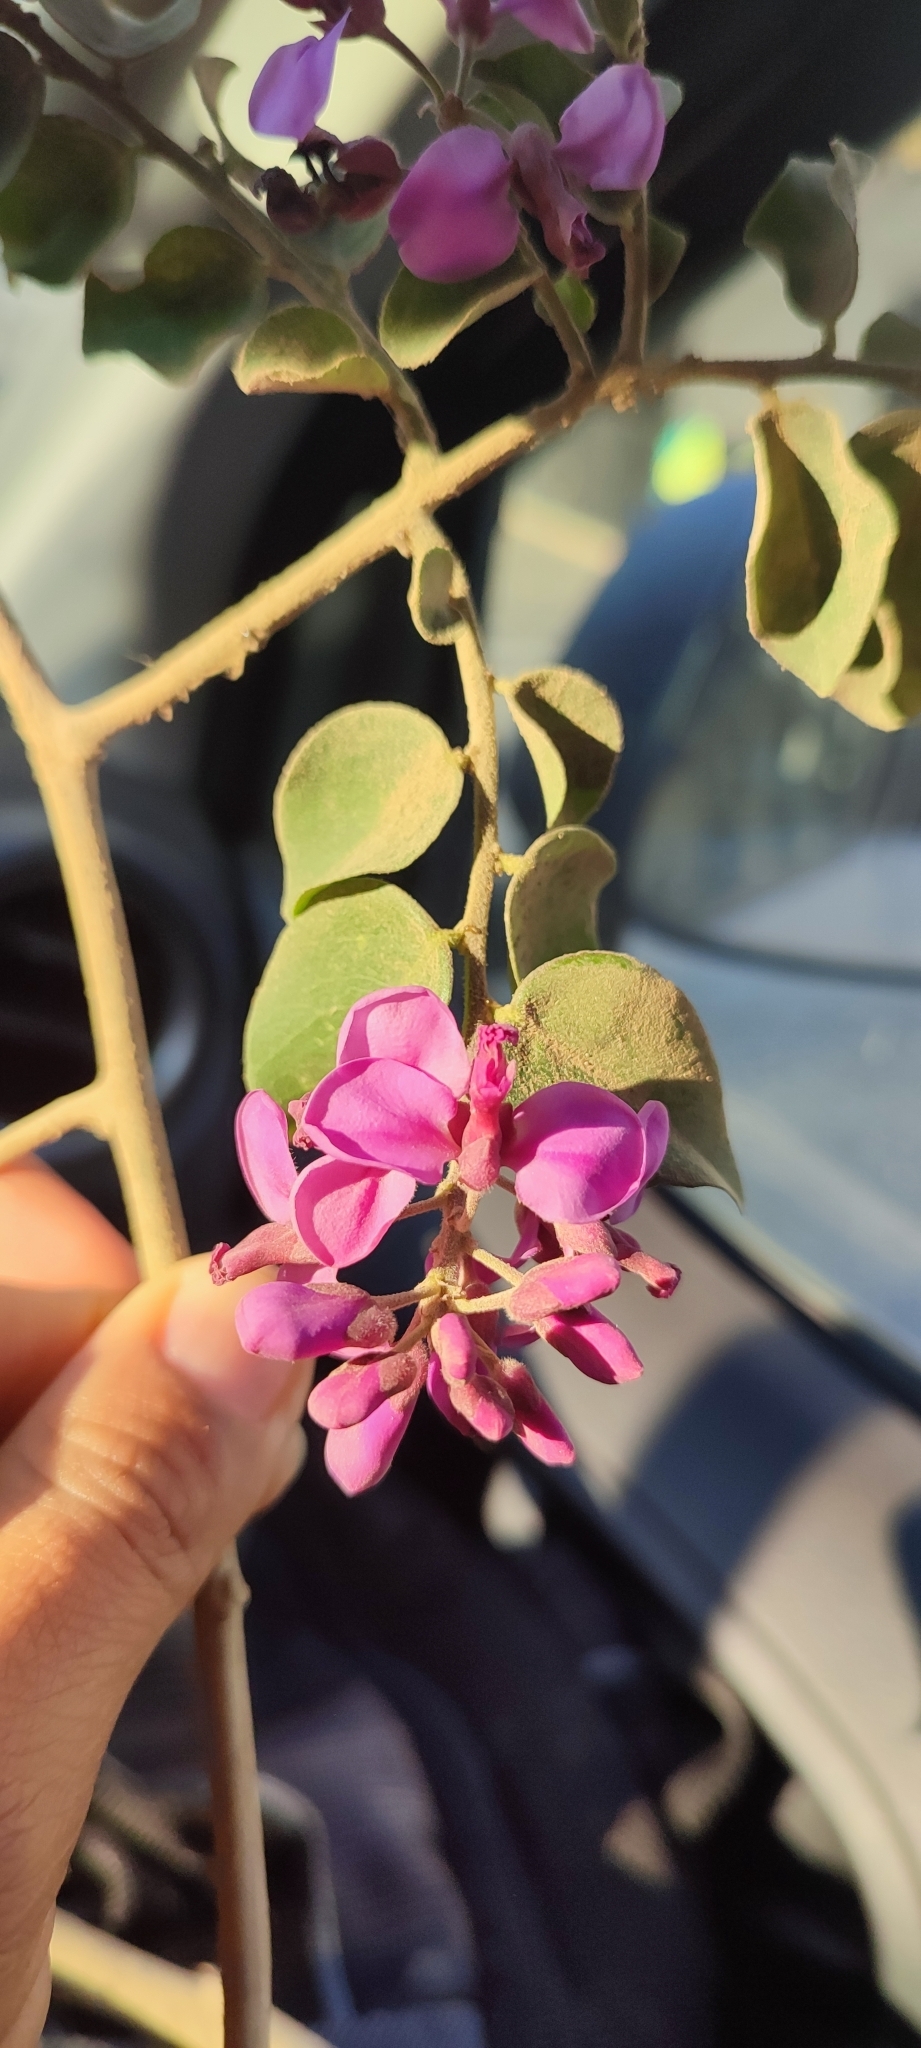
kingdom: Plantae
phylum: Tracheophyta
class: Magnoliopsida
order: Fabales
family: Polygalaceae
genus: Securidaca
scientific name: Securidaca diversifolia
